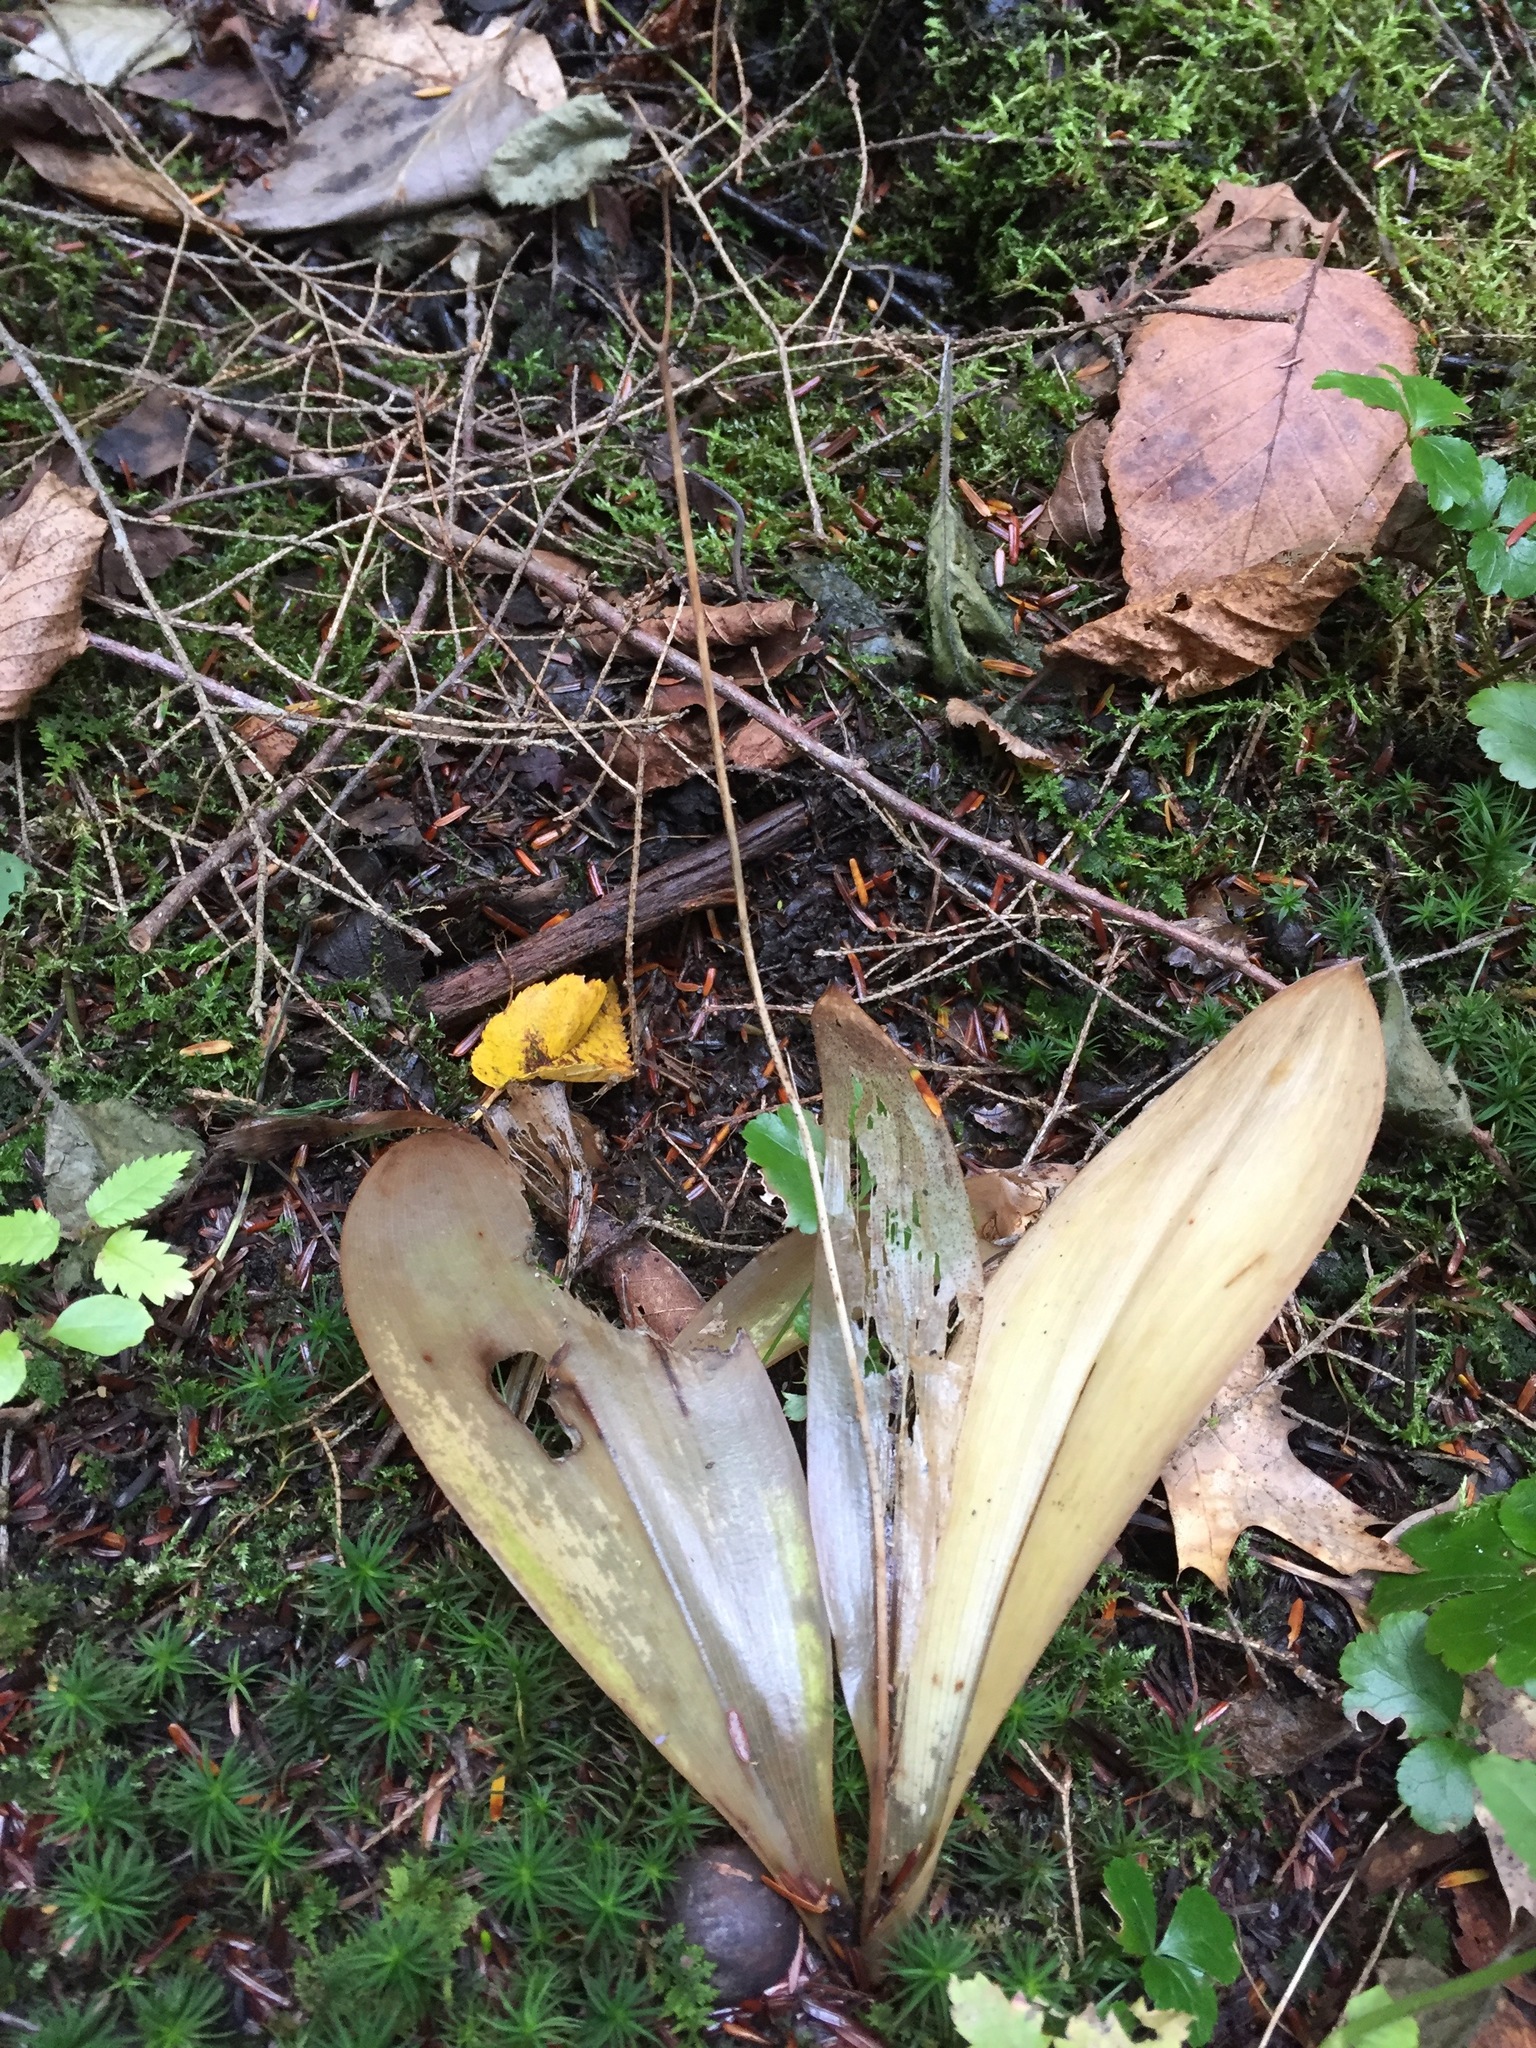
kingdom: Plantae
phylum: Tracheophyta
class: Liliopsida
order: Liliales
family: Liliaceae
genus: Clintonia
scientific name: Clintonia borealis
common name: Yellow clintonia
